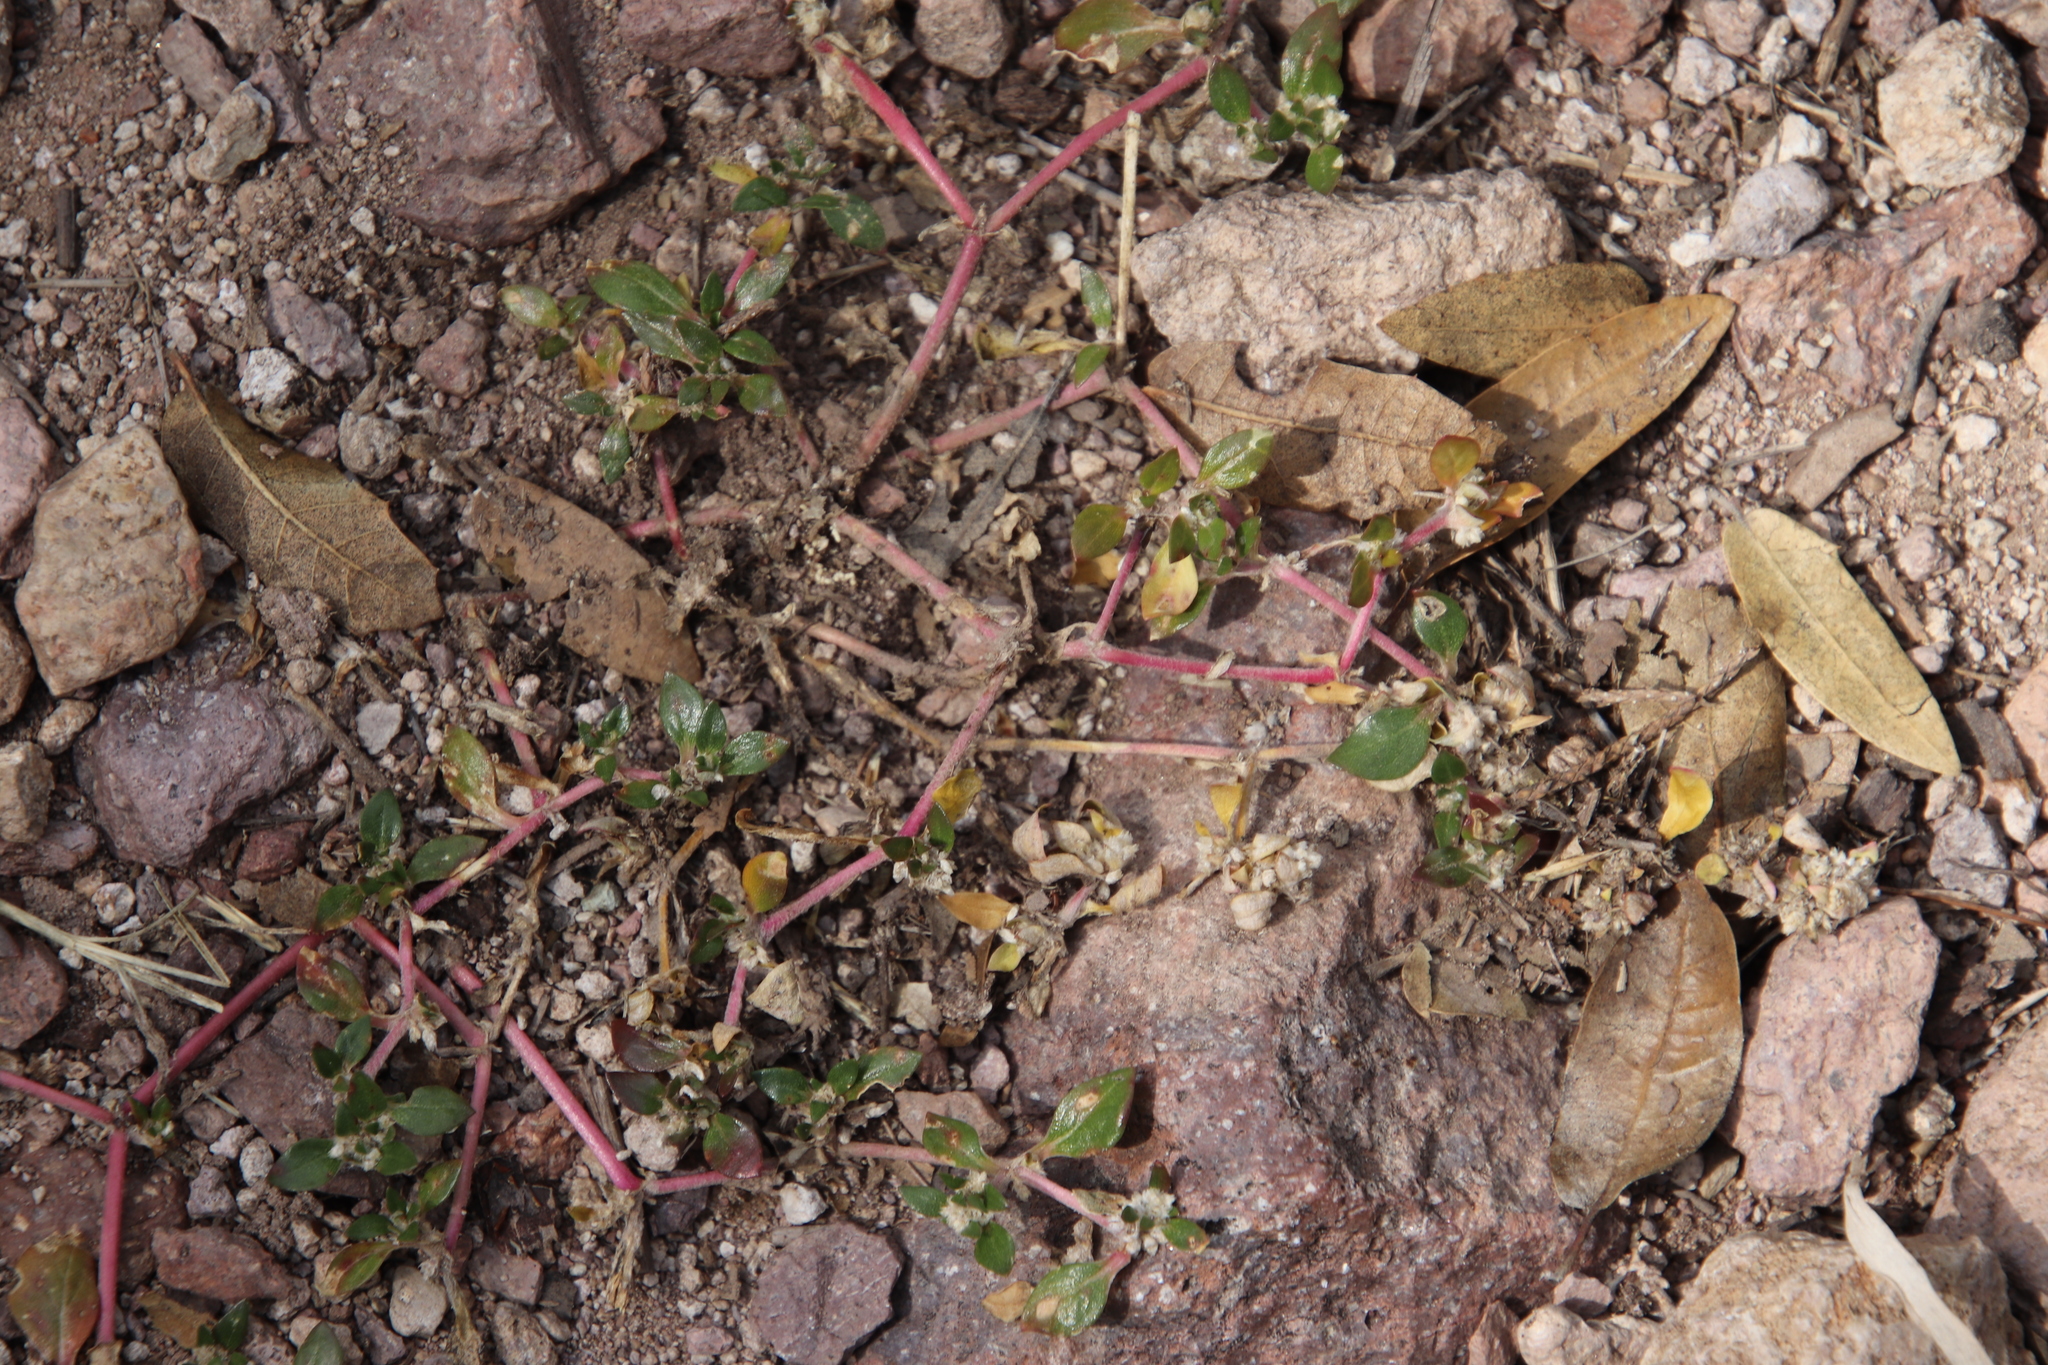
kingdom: Plantae
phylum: Tracheophyta
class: Magnoliopsida
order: Caryophyllales
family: Amaranthaceae
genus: Guilleminea
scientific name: Guilleminea densa
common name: Small matweed
